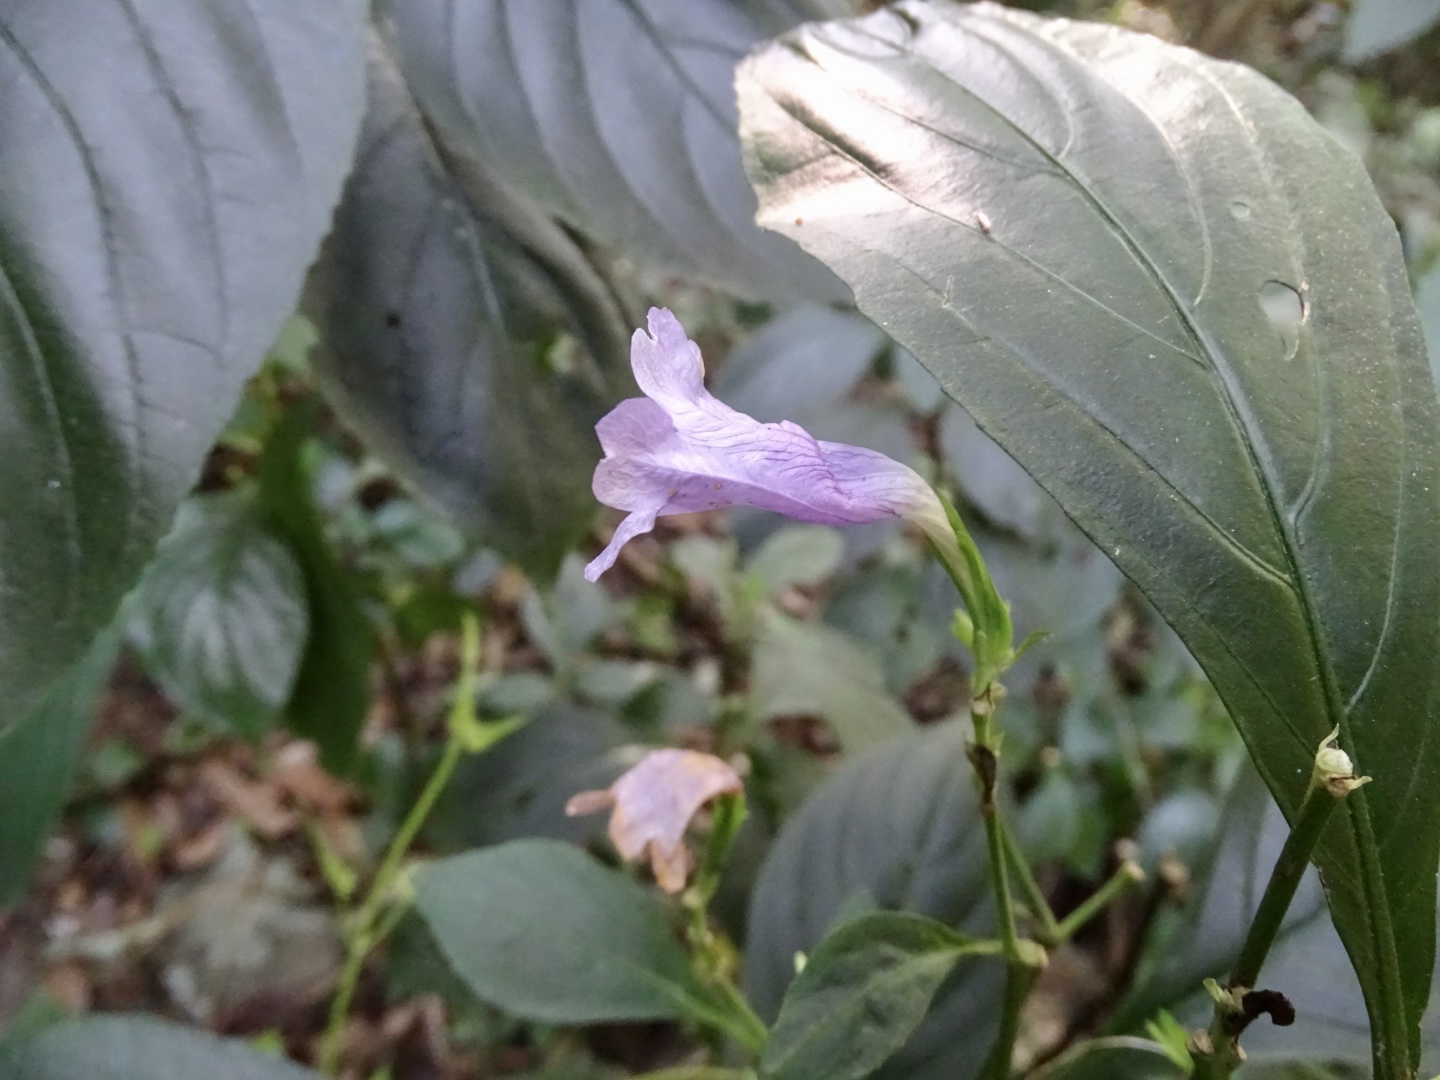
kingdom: Plantae
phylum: Tracheophyta
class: Magnoliopsida
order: Lamiales
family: Acanthaceae
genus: Strobilanthes
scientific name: Strobilanthes cusia
